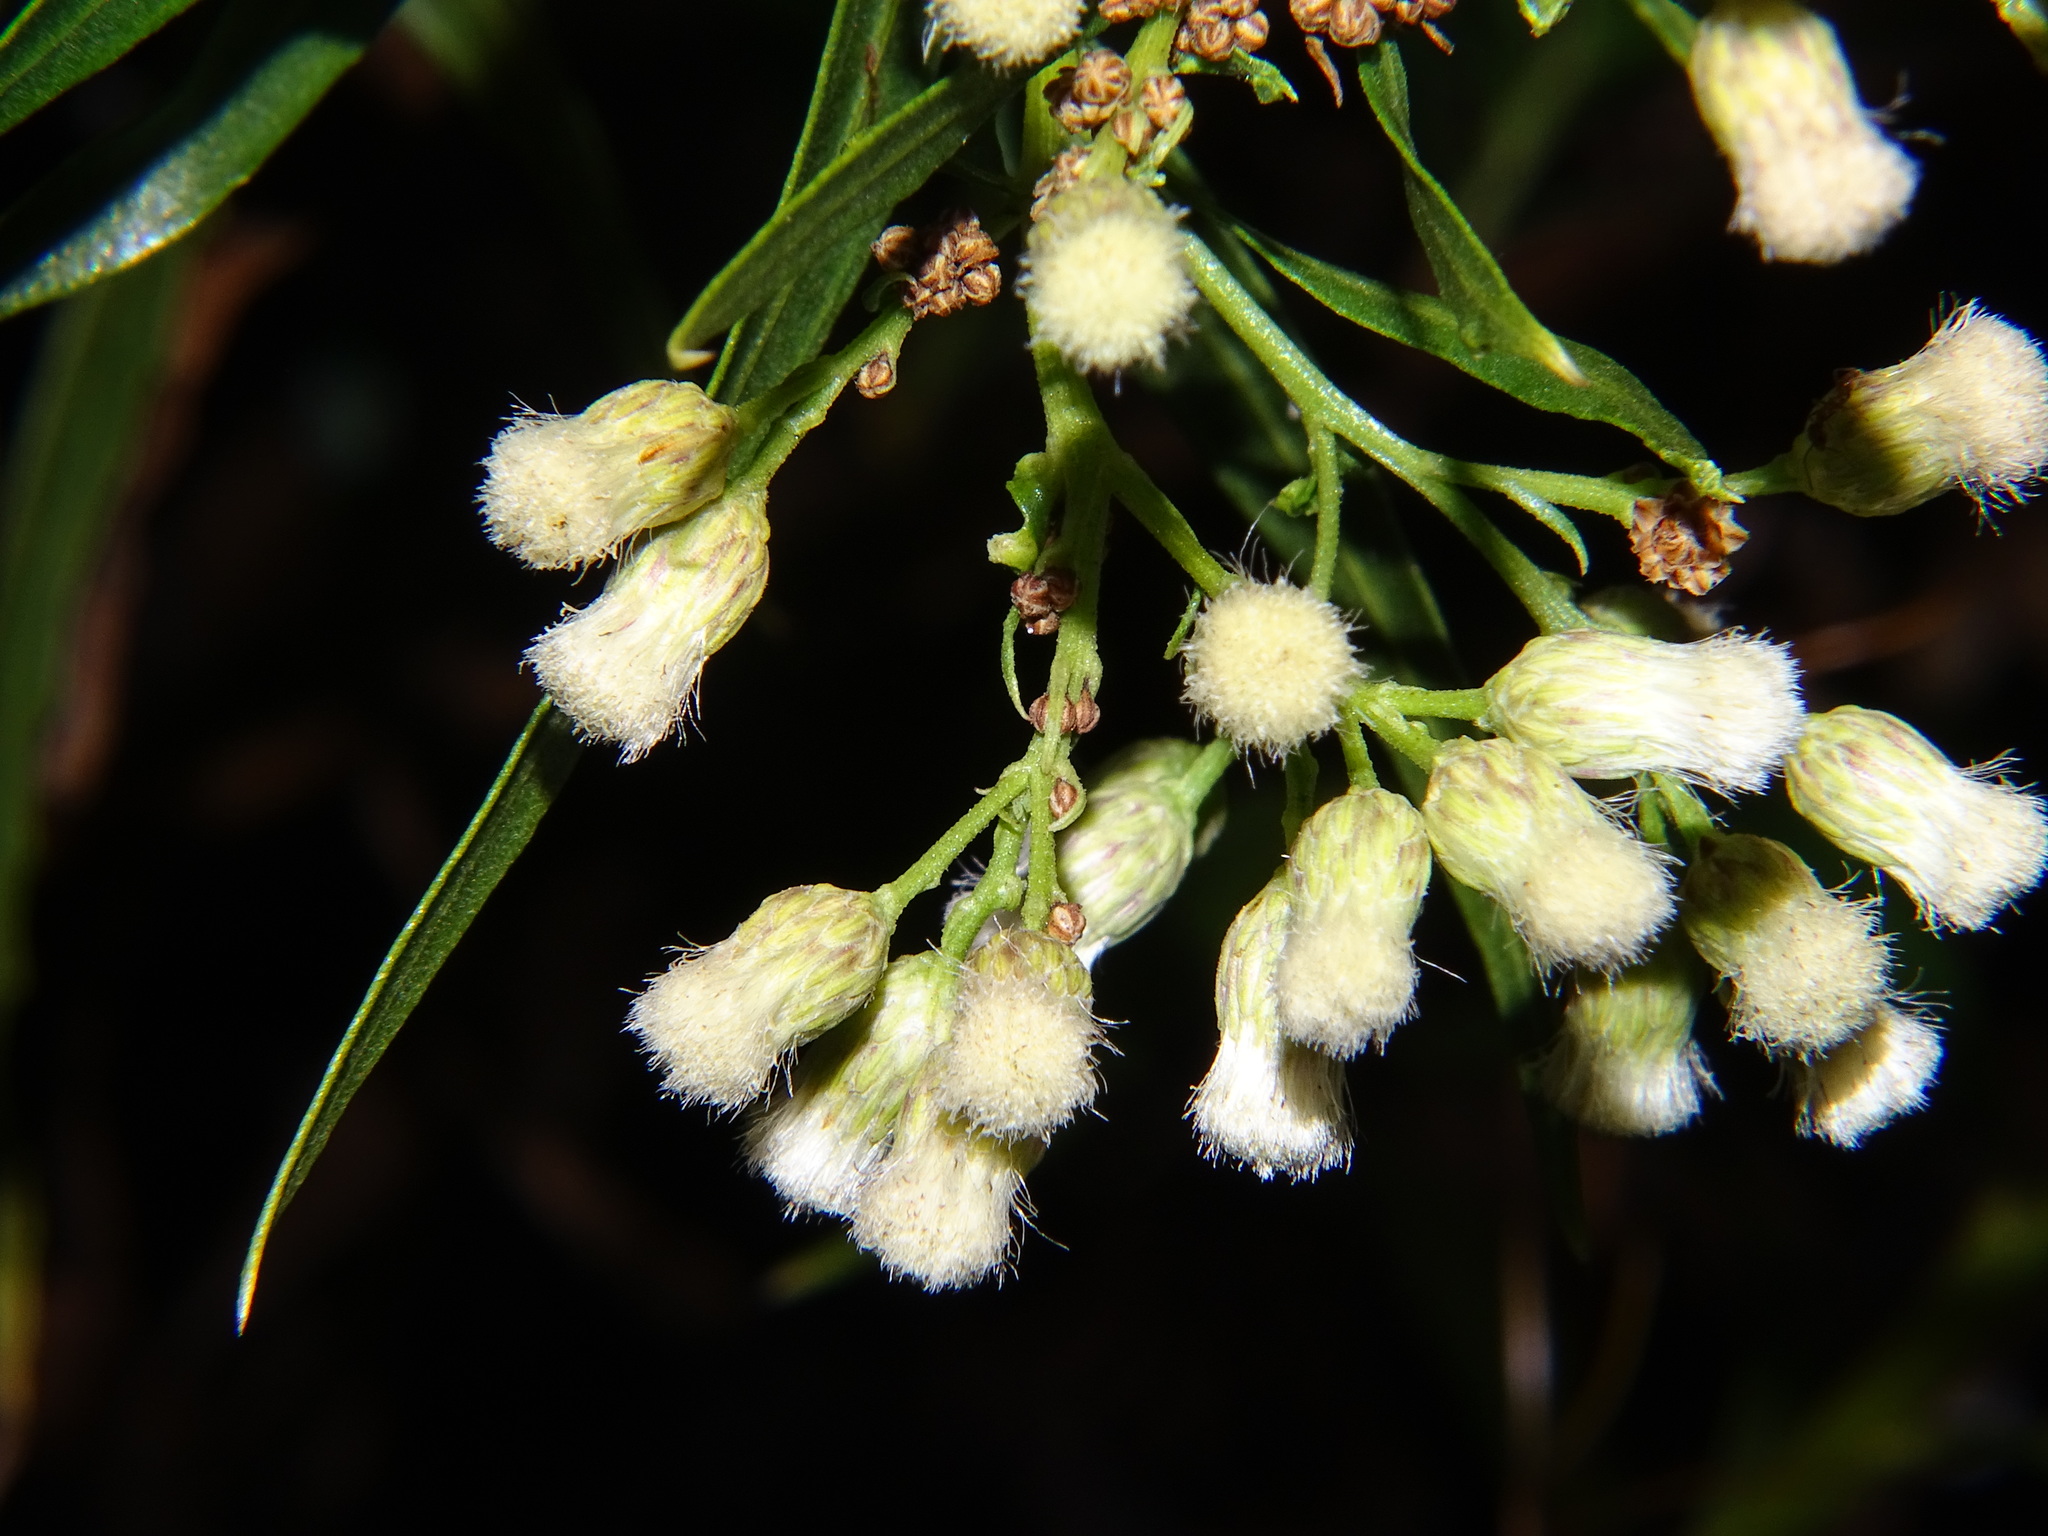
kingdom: Plantae
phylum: Tracheophyta
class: Magnoliopsida
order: Asterales
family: Asteraceae
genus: Baccharis
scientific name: Baccharis salicifolia
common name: Sticky baccharis
